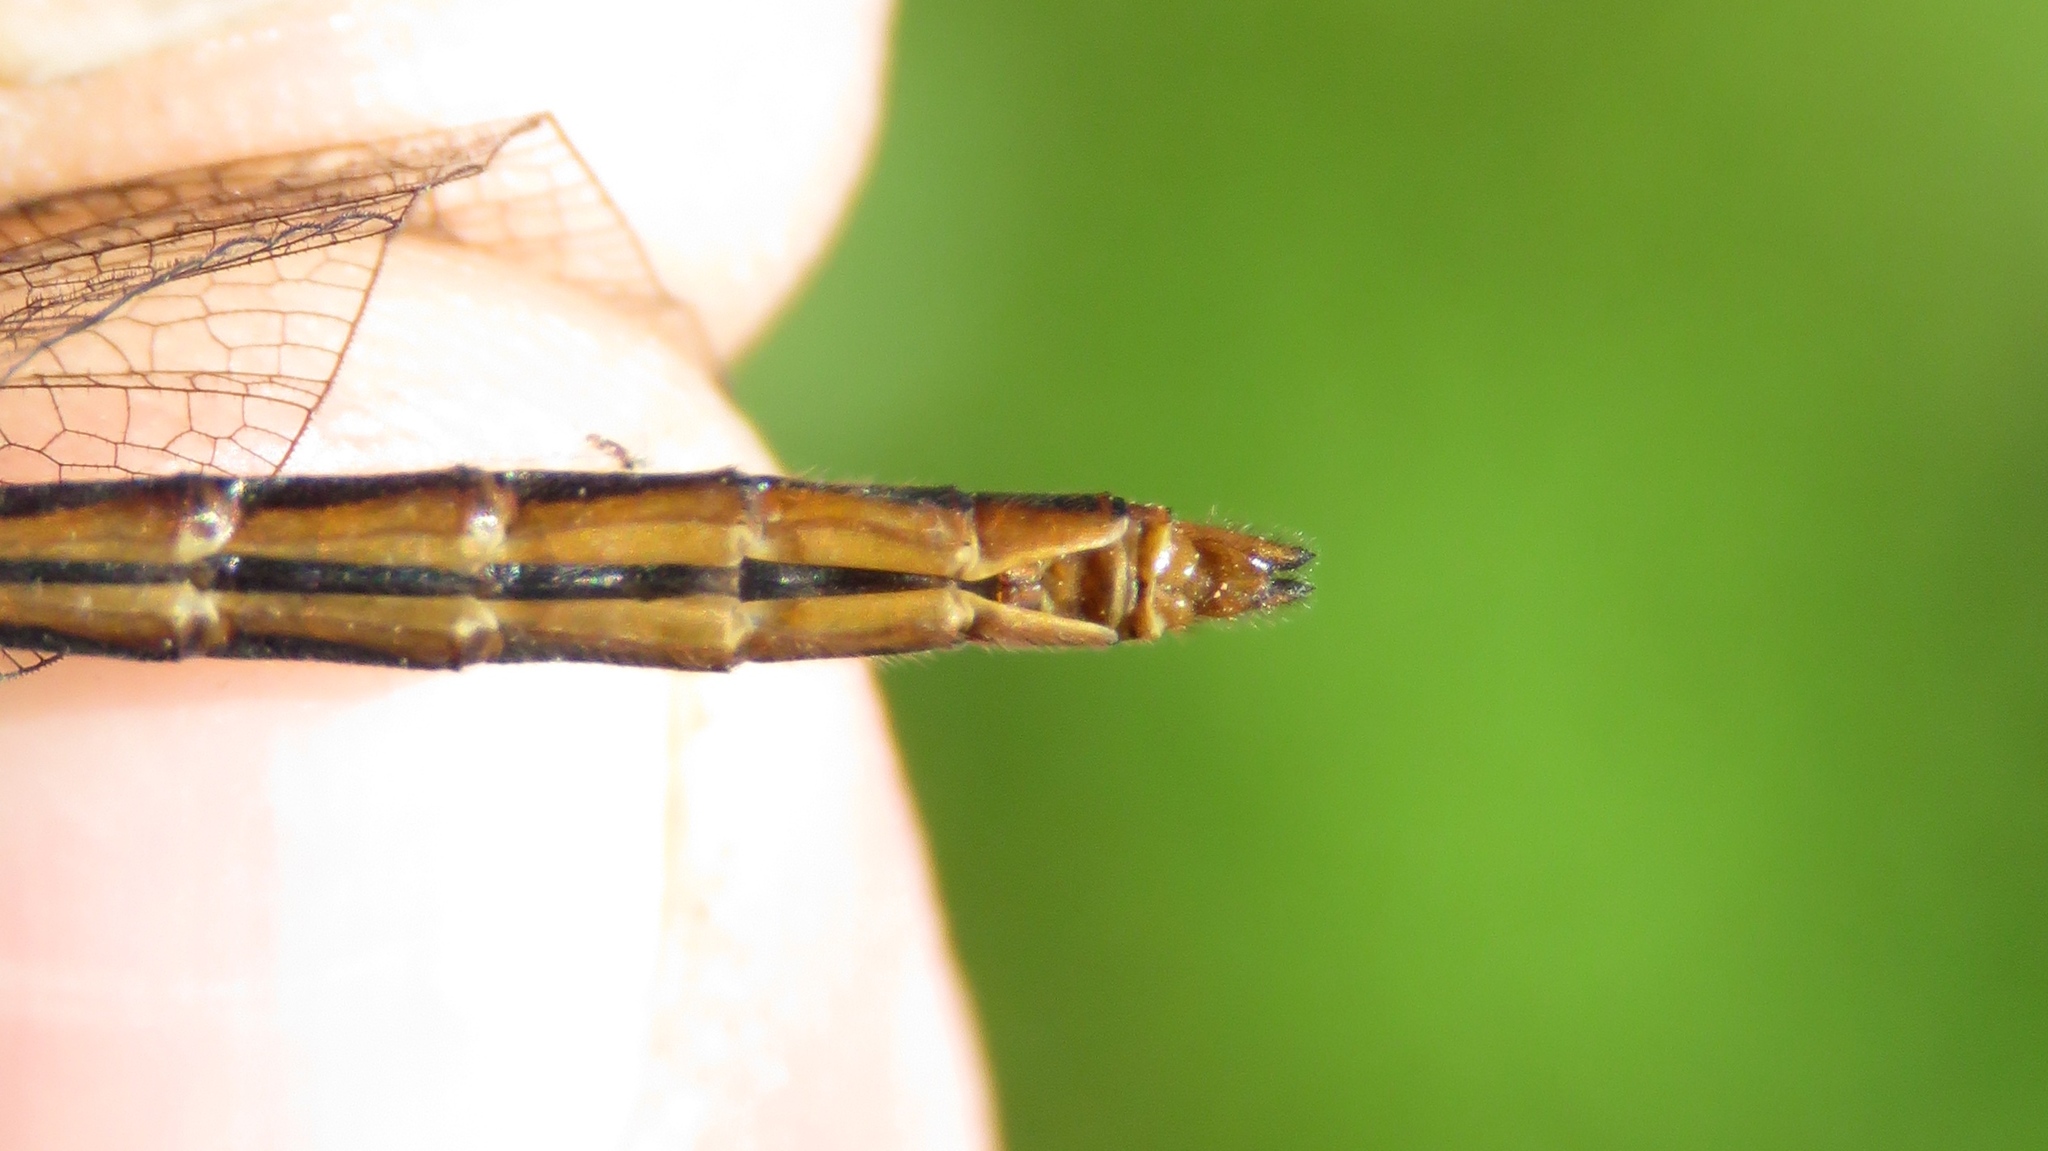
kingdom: Animalia
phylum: Arthropoda
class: Insecta
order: Odonata
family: Libellulidae
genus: Sympetrum
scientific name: Sympetrum rubicundulum
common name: Ruby meadowhawk
